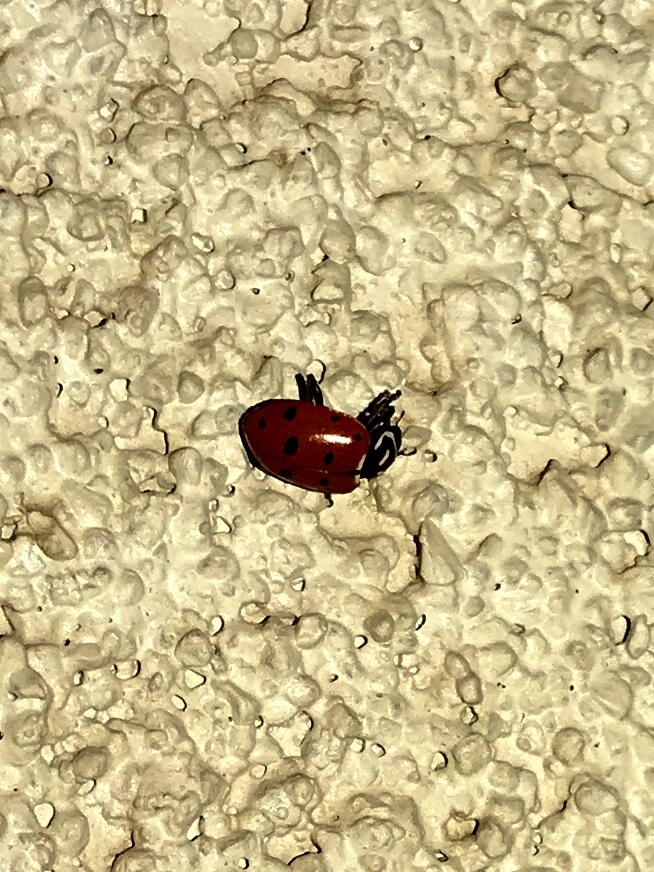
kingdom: Animalia
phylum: Arthropoda
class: Insecta
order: Coleoptera
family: Coccinellidae
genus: Hippodamia
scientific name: Hippodamia convergens
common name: Convergent lady beetle
